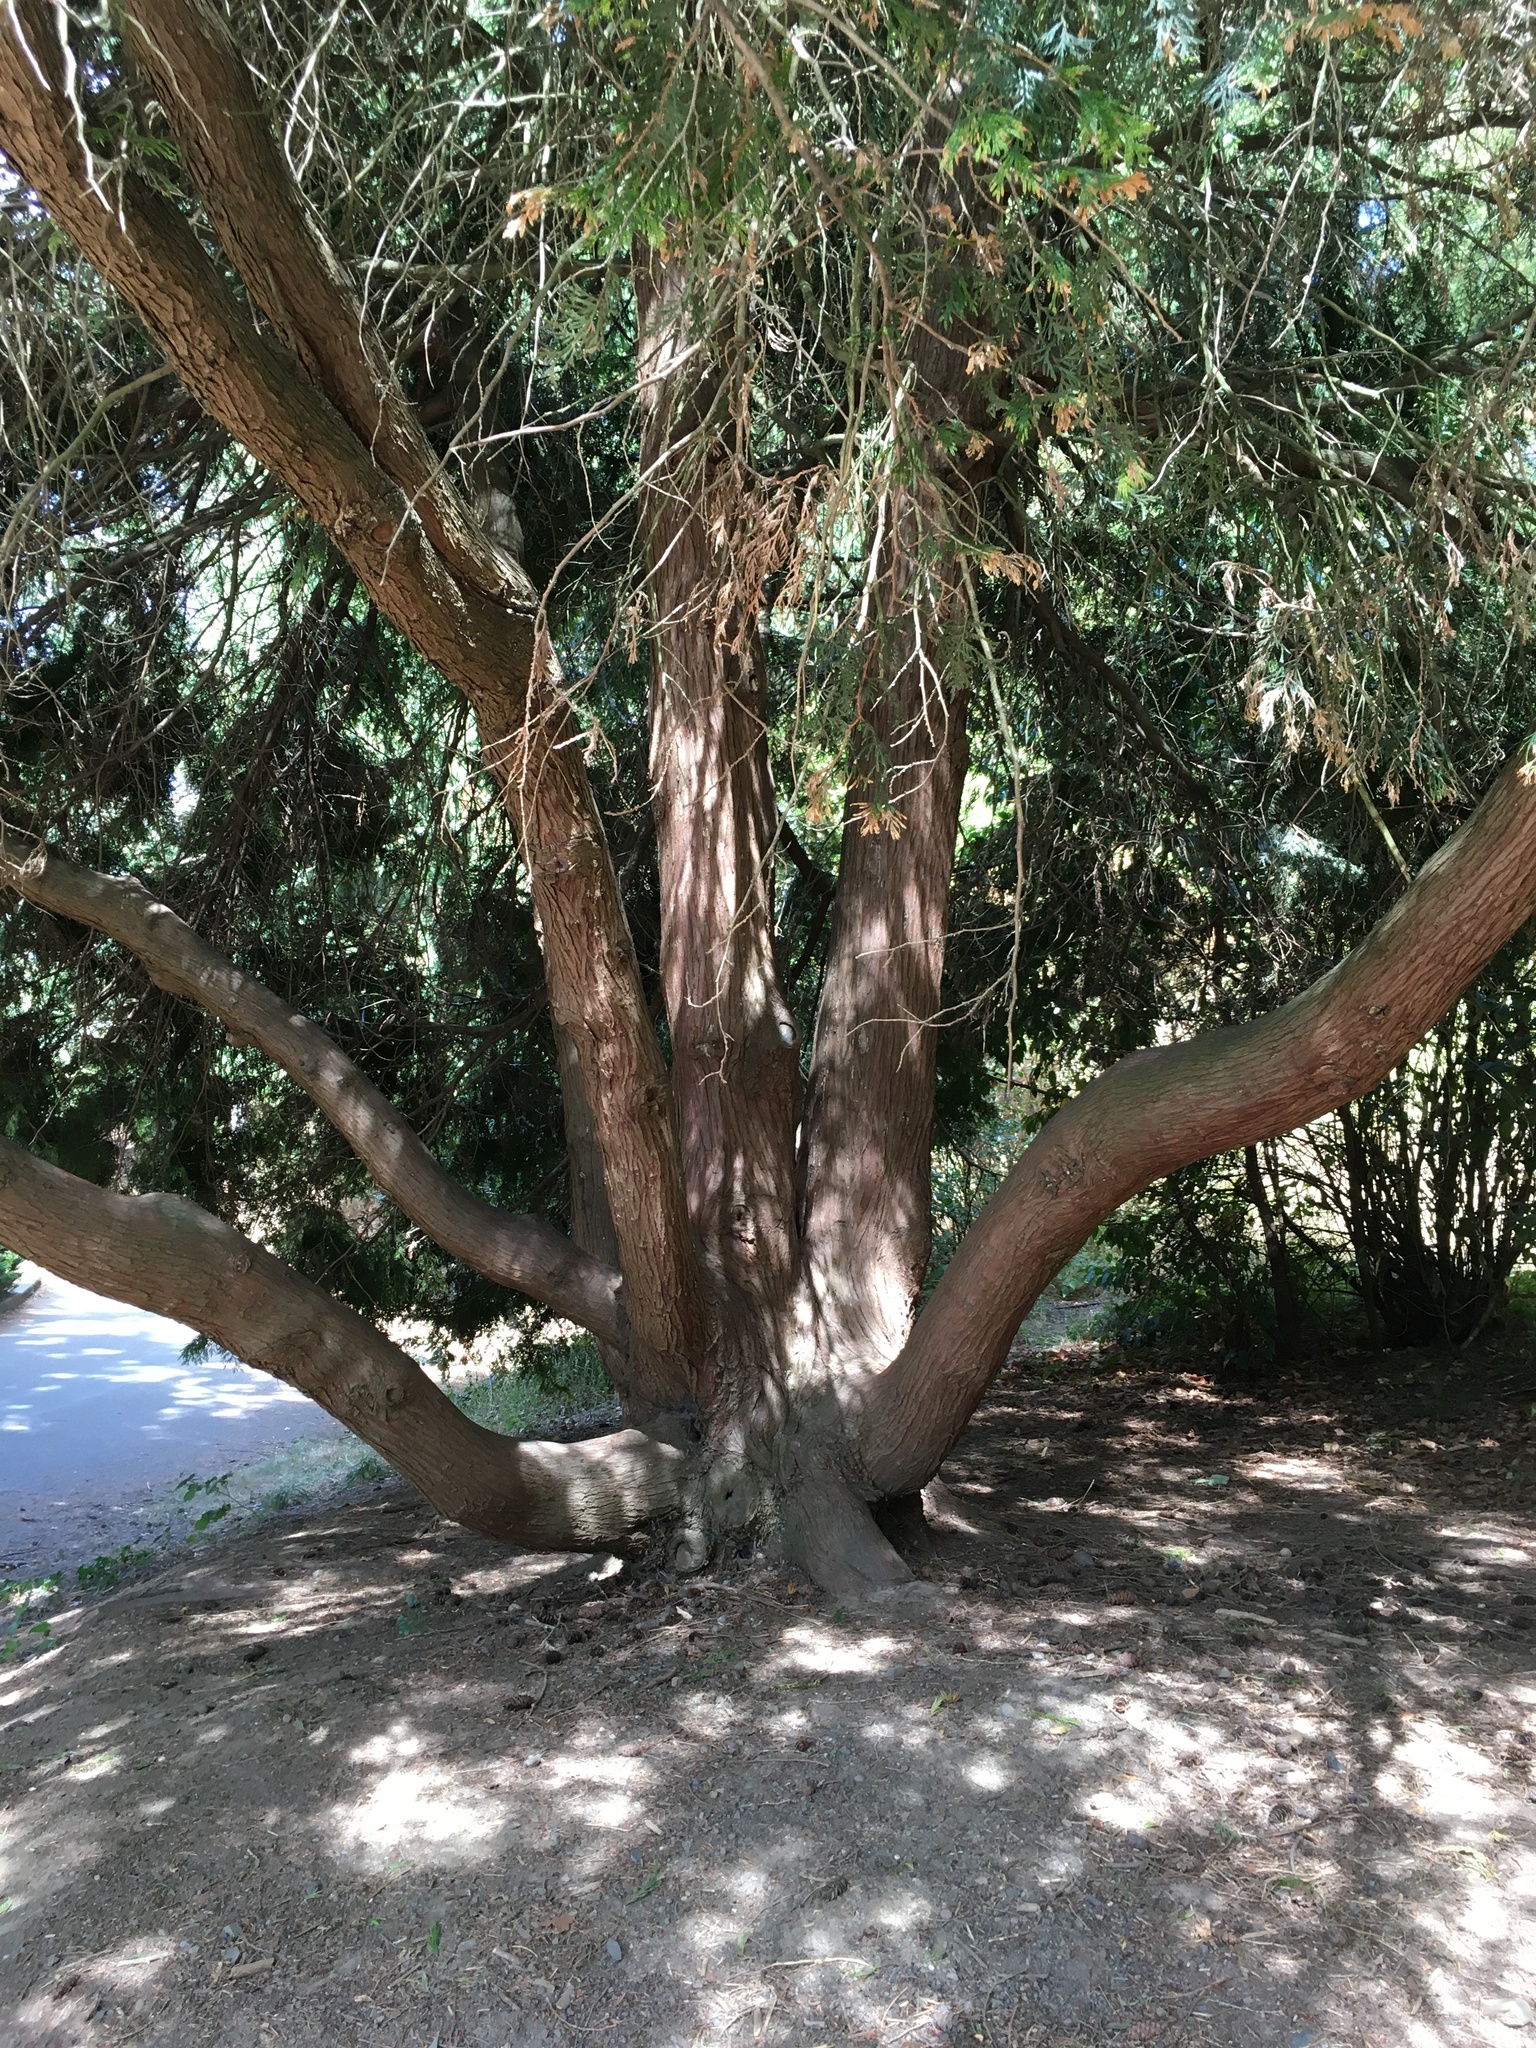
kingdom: Plantae
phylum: Tracheophyta
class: Pinopsida
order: Pinales
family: Cupressaceae
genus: Thuja
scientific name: Thuja plicata
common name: Western red-cedar
